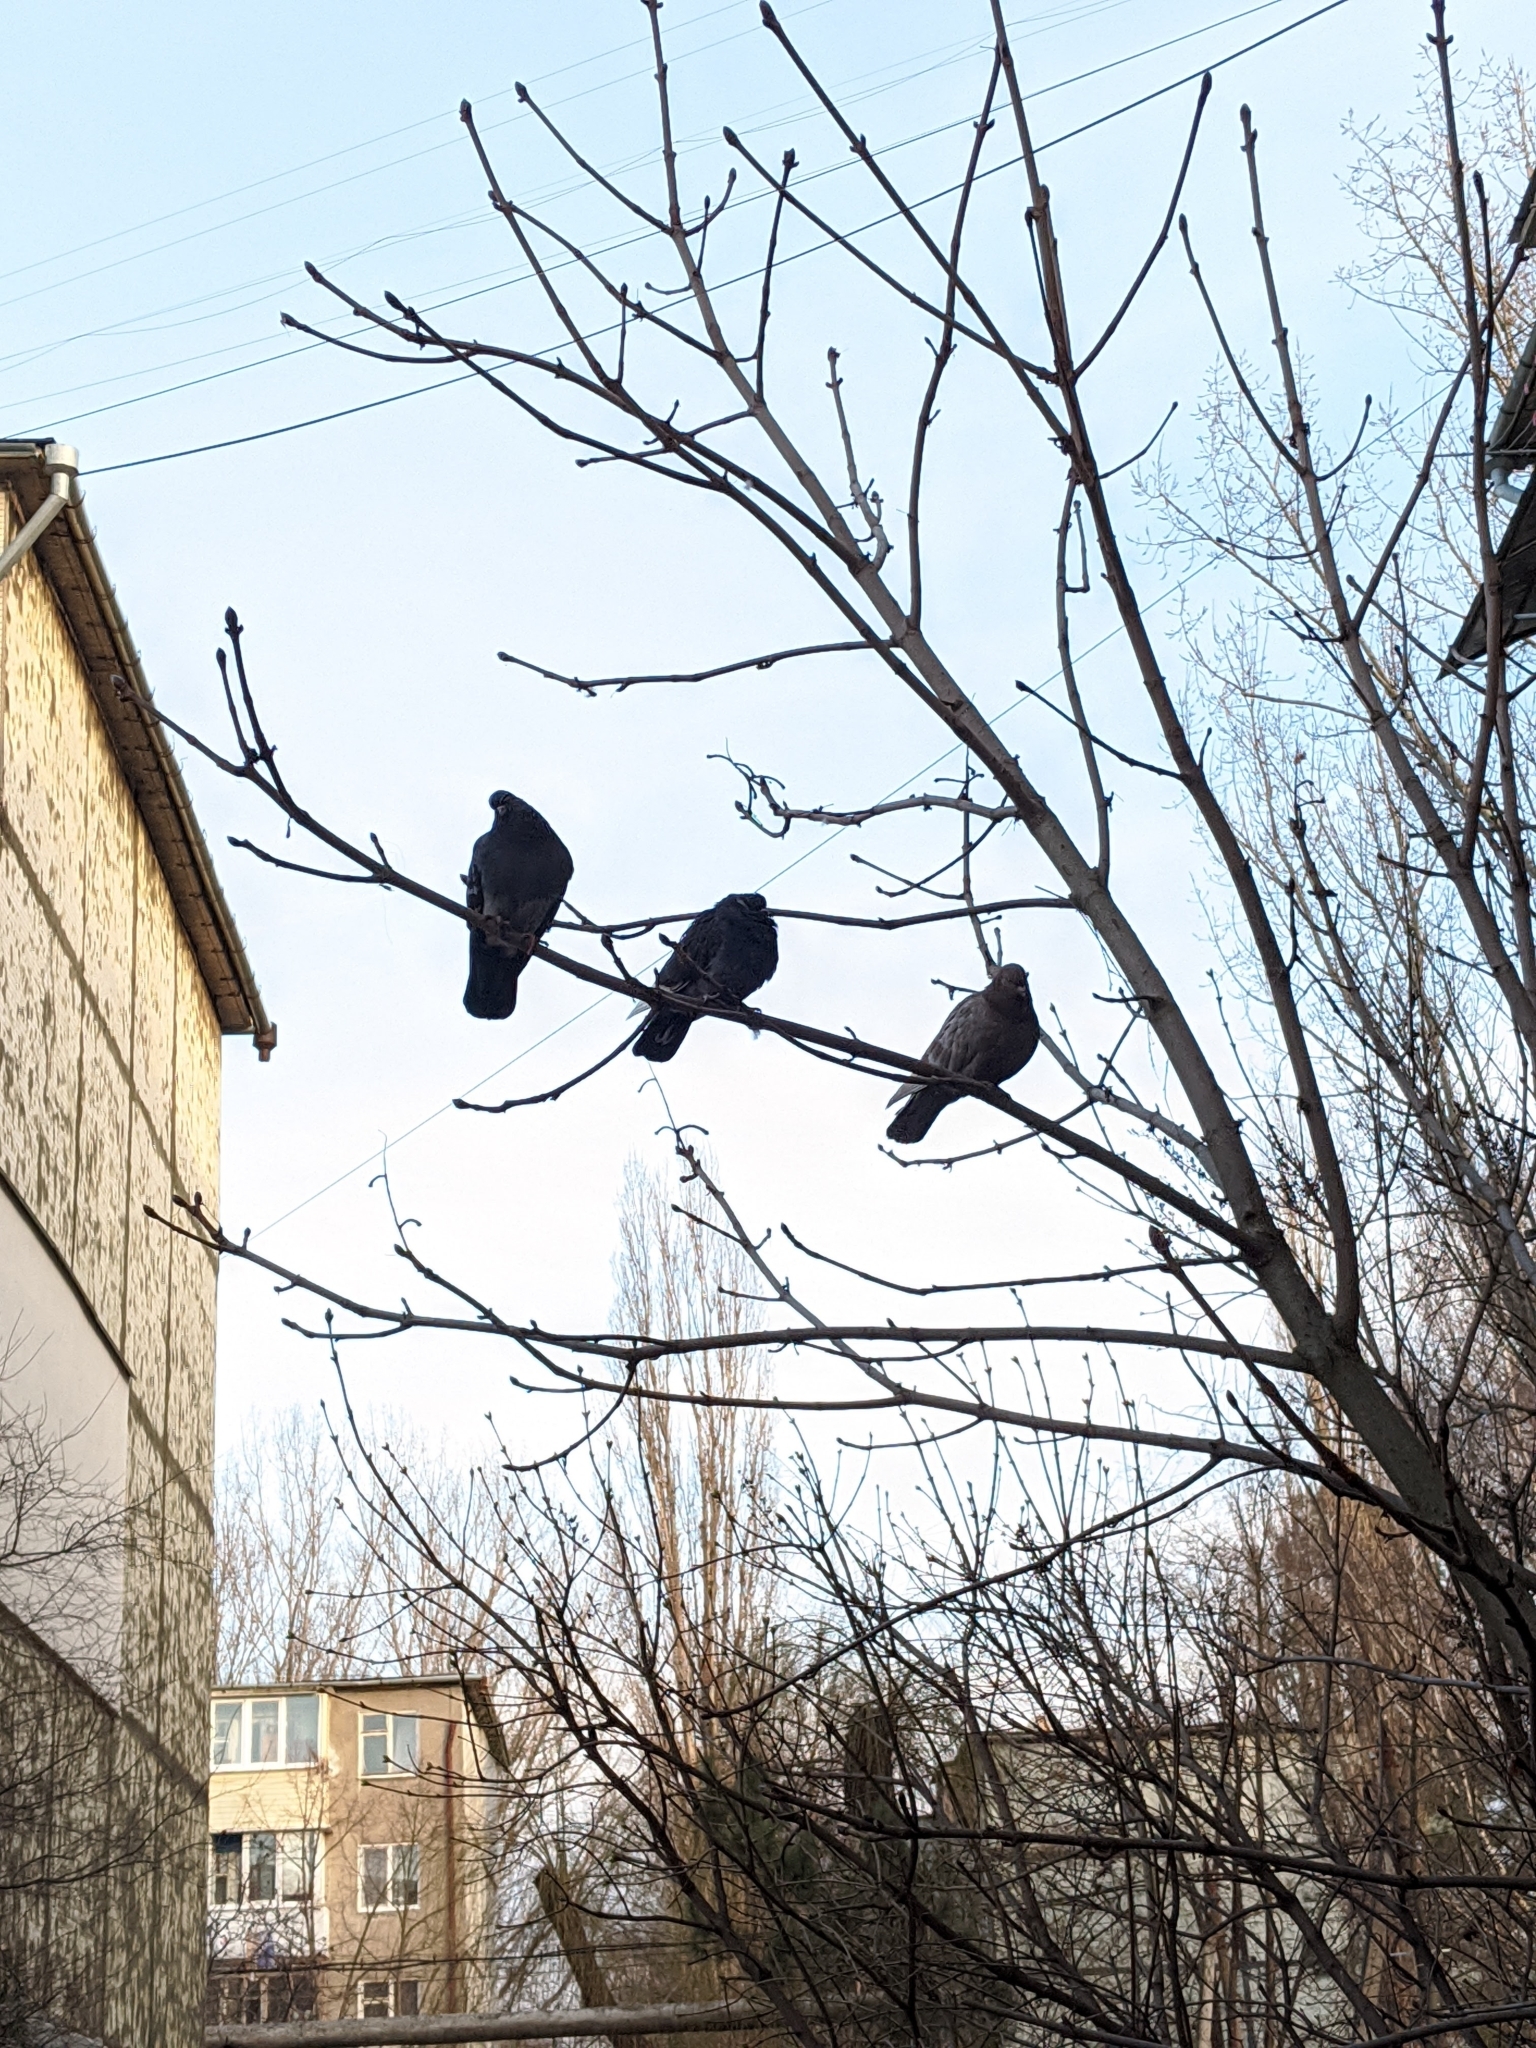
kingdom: Animalia
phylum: Chordata
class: Aves
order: Columbiformes
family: Columbidae
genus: Columba
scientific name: Columba livia
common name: Rock pigeon
